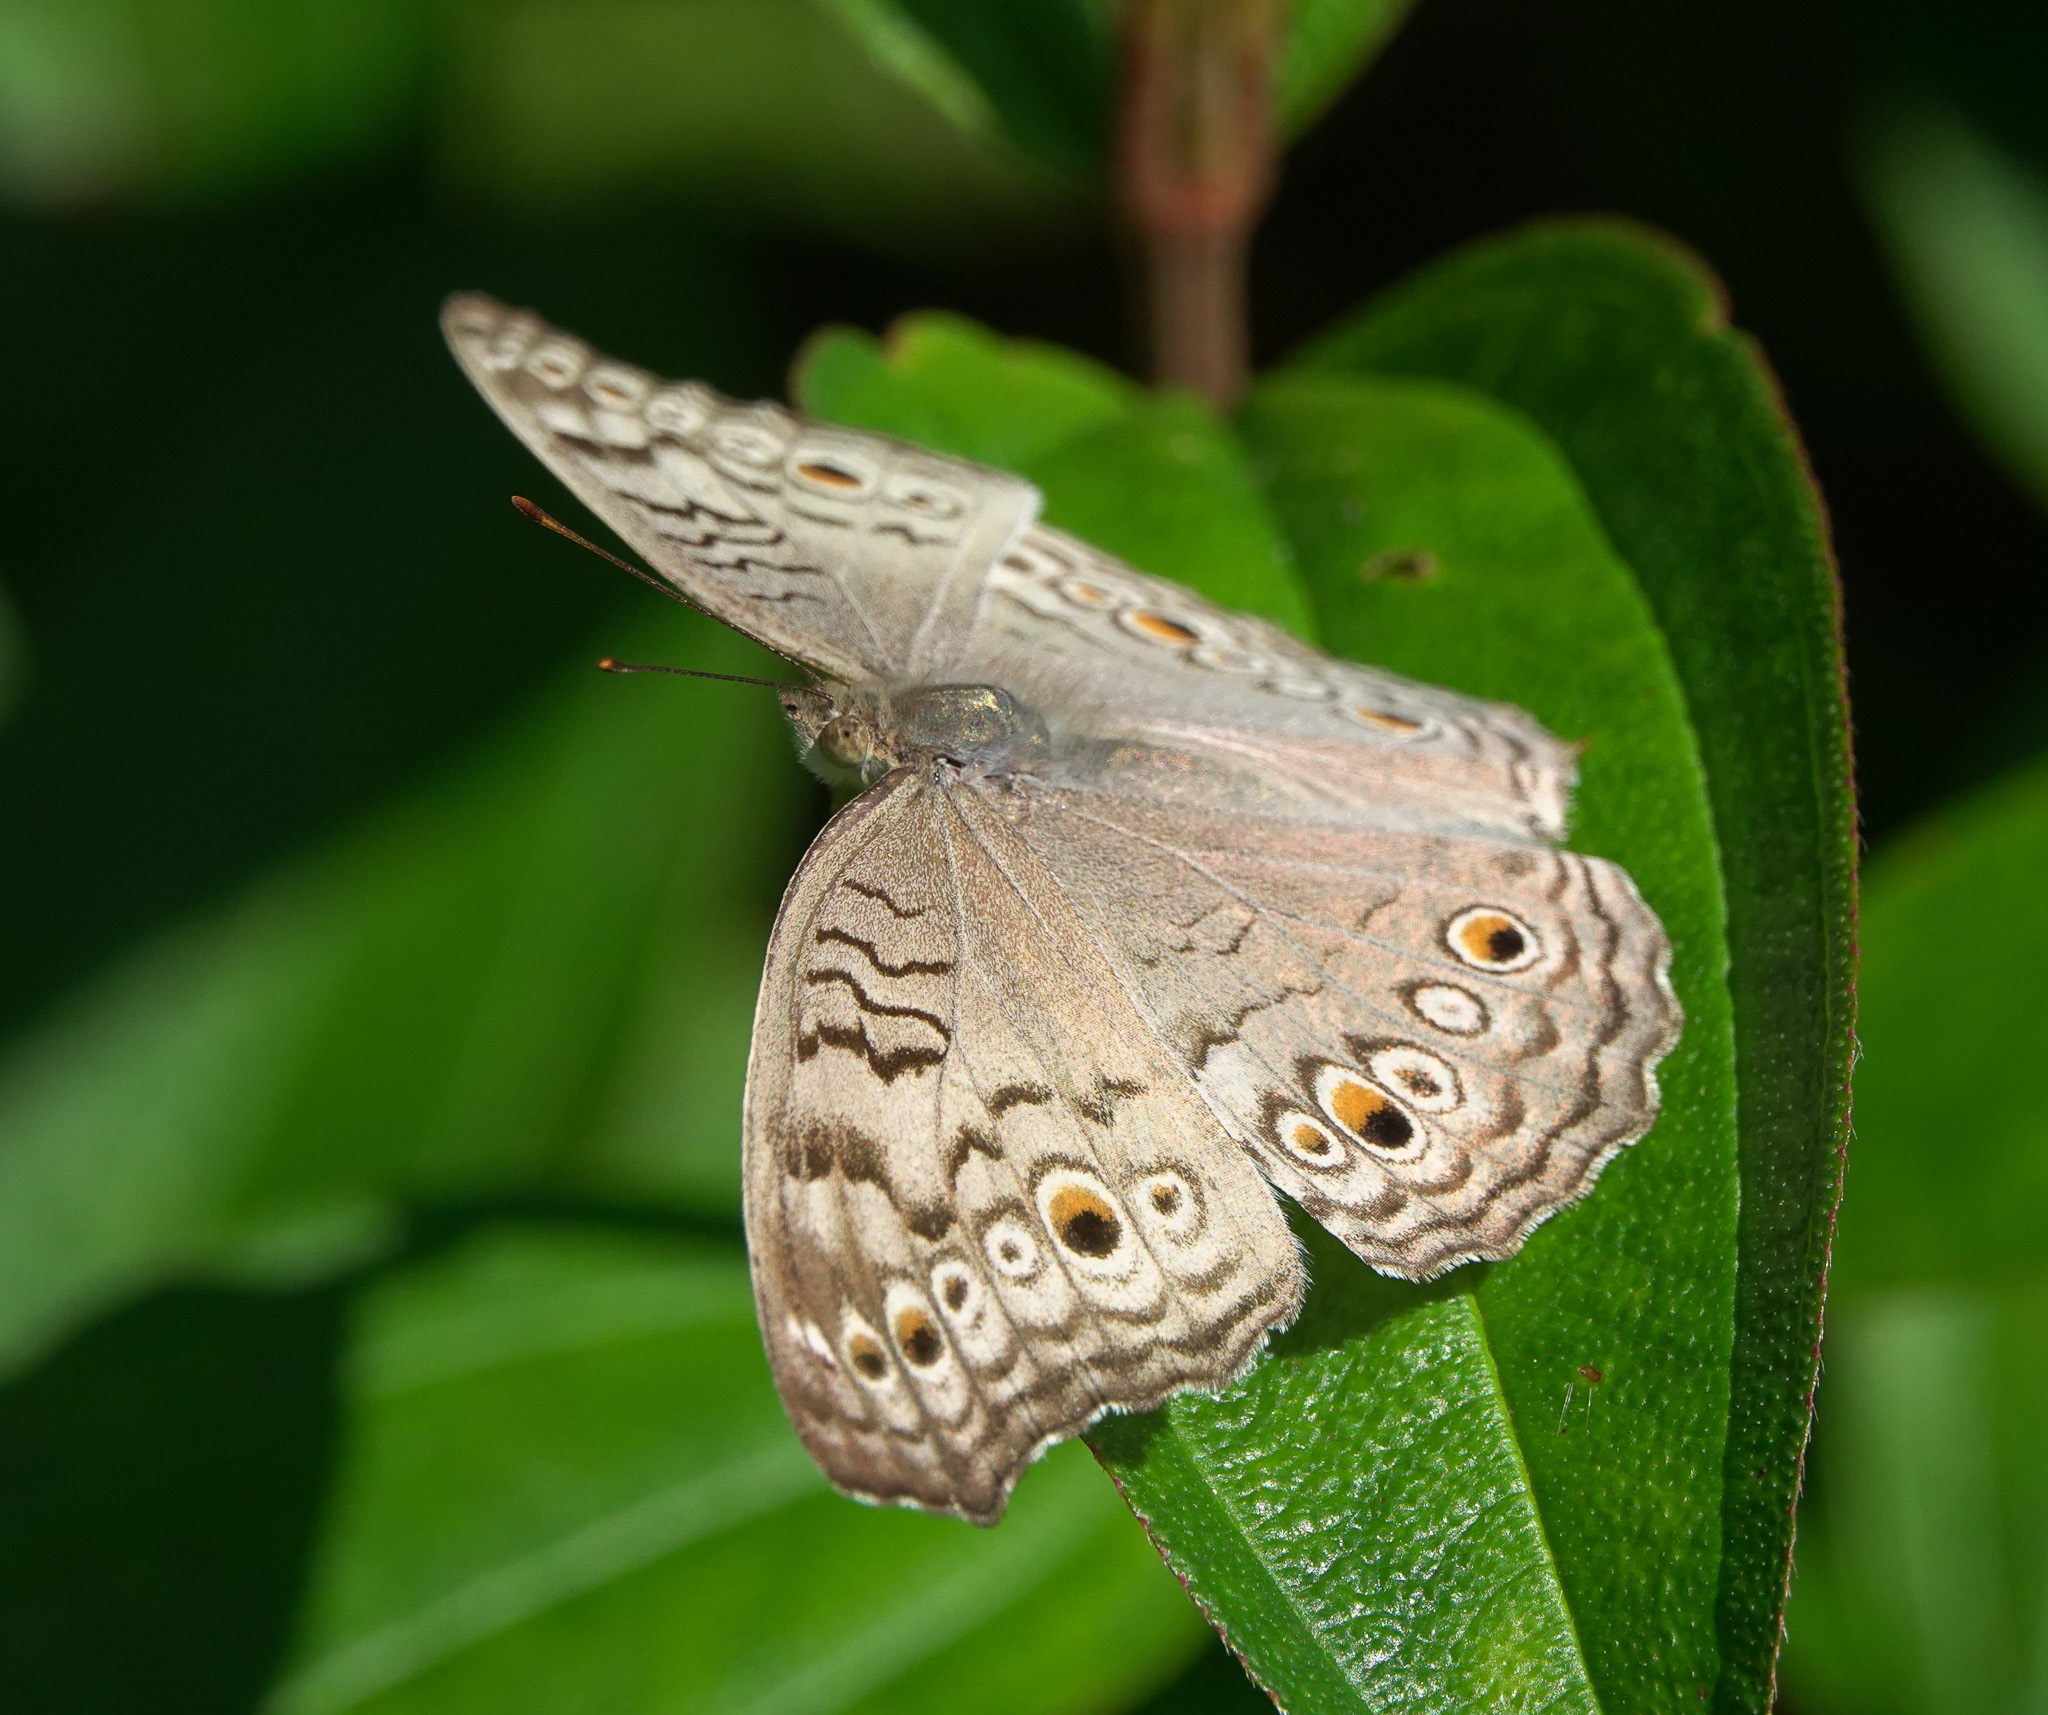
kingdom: Animalia
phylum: Arthropoda
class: Insecta
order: Lepidoptera
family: Nymphalidae
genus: Junonia
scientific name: Junonia atlites
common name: Grey pansy
